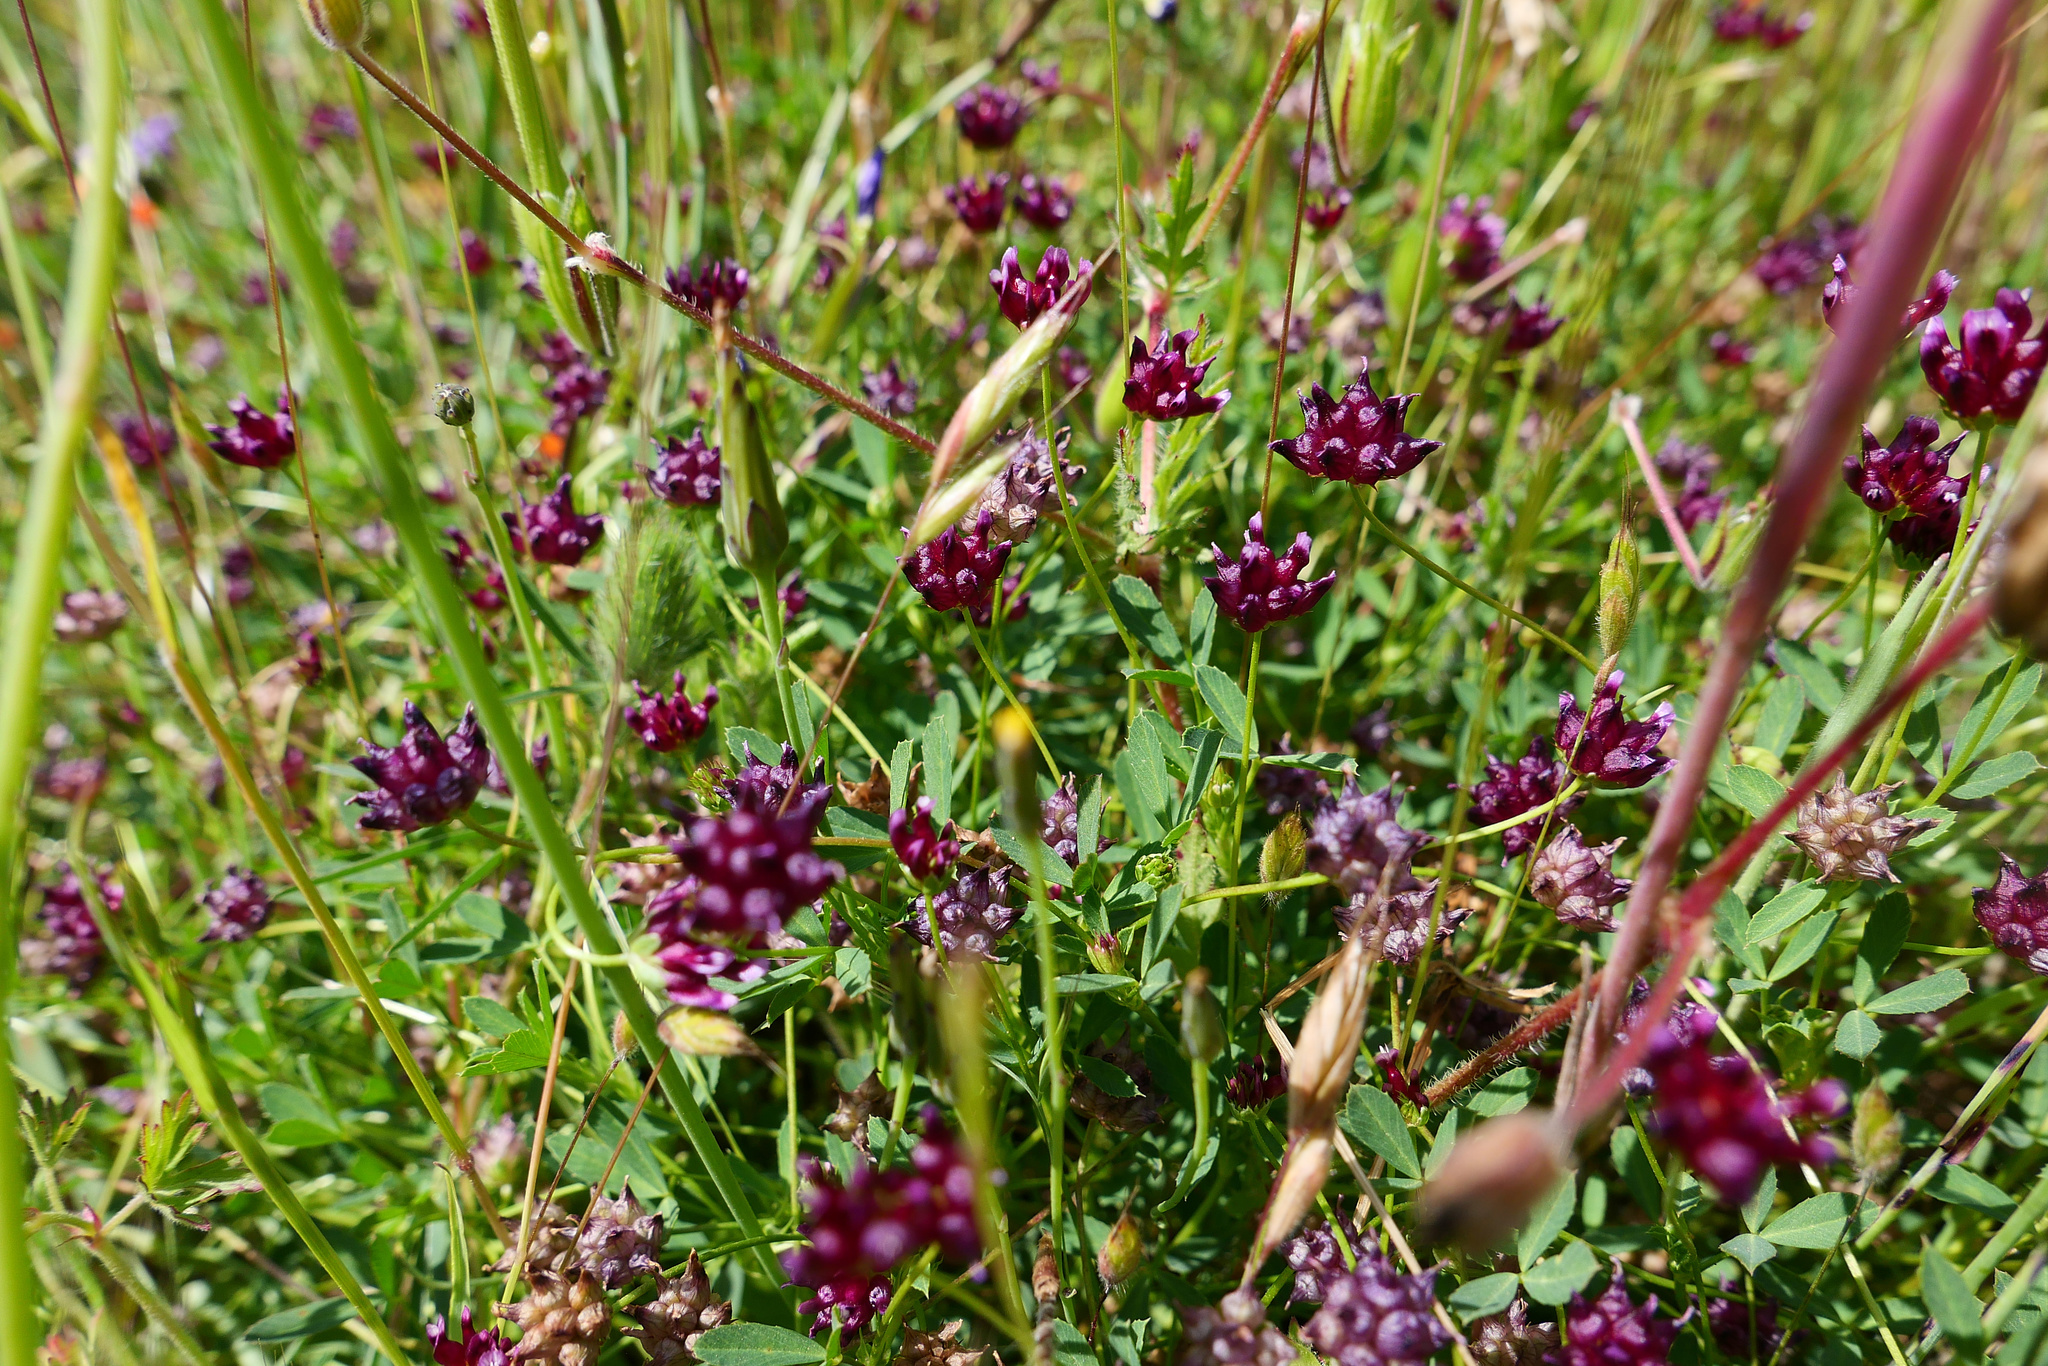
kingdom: Plantae
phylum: Tracheophyta
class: Magnoliopsida
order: Fabales
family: Fabaceae
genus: Trifolium
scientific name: Trifolium depauperatum
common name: Poverty clover
